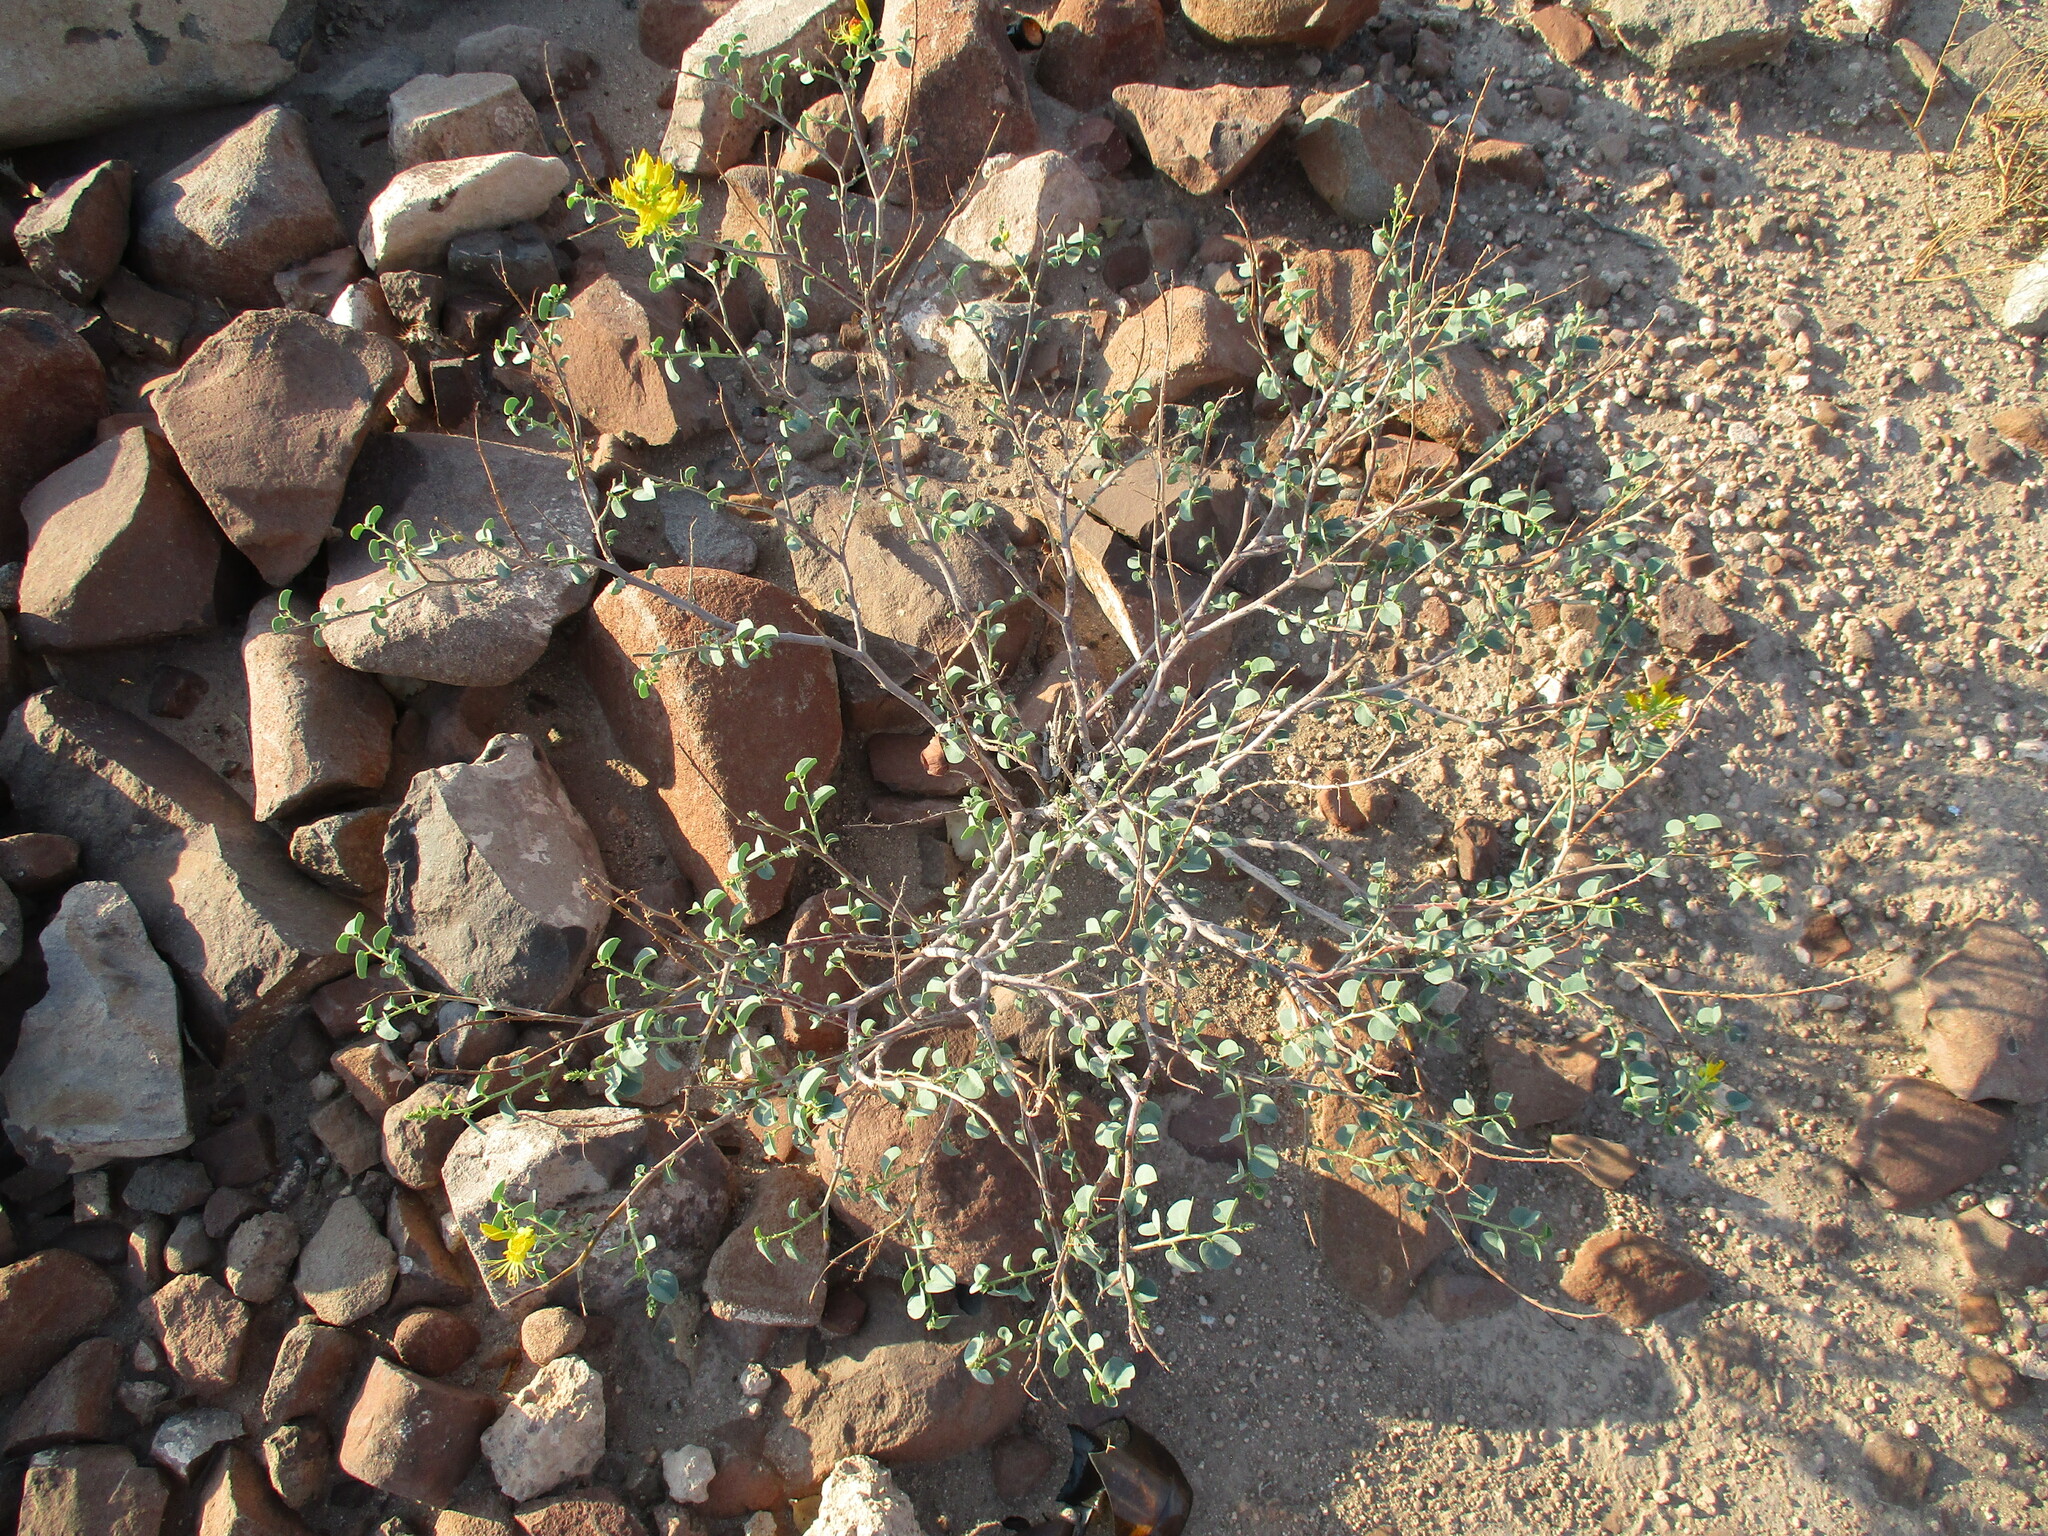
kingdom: Plantae
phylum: Tracheophyta
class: Magnoliopsida
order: Fabales
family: Fabaceae
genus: Adenolobus
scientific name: Adenolobus pechuelii
